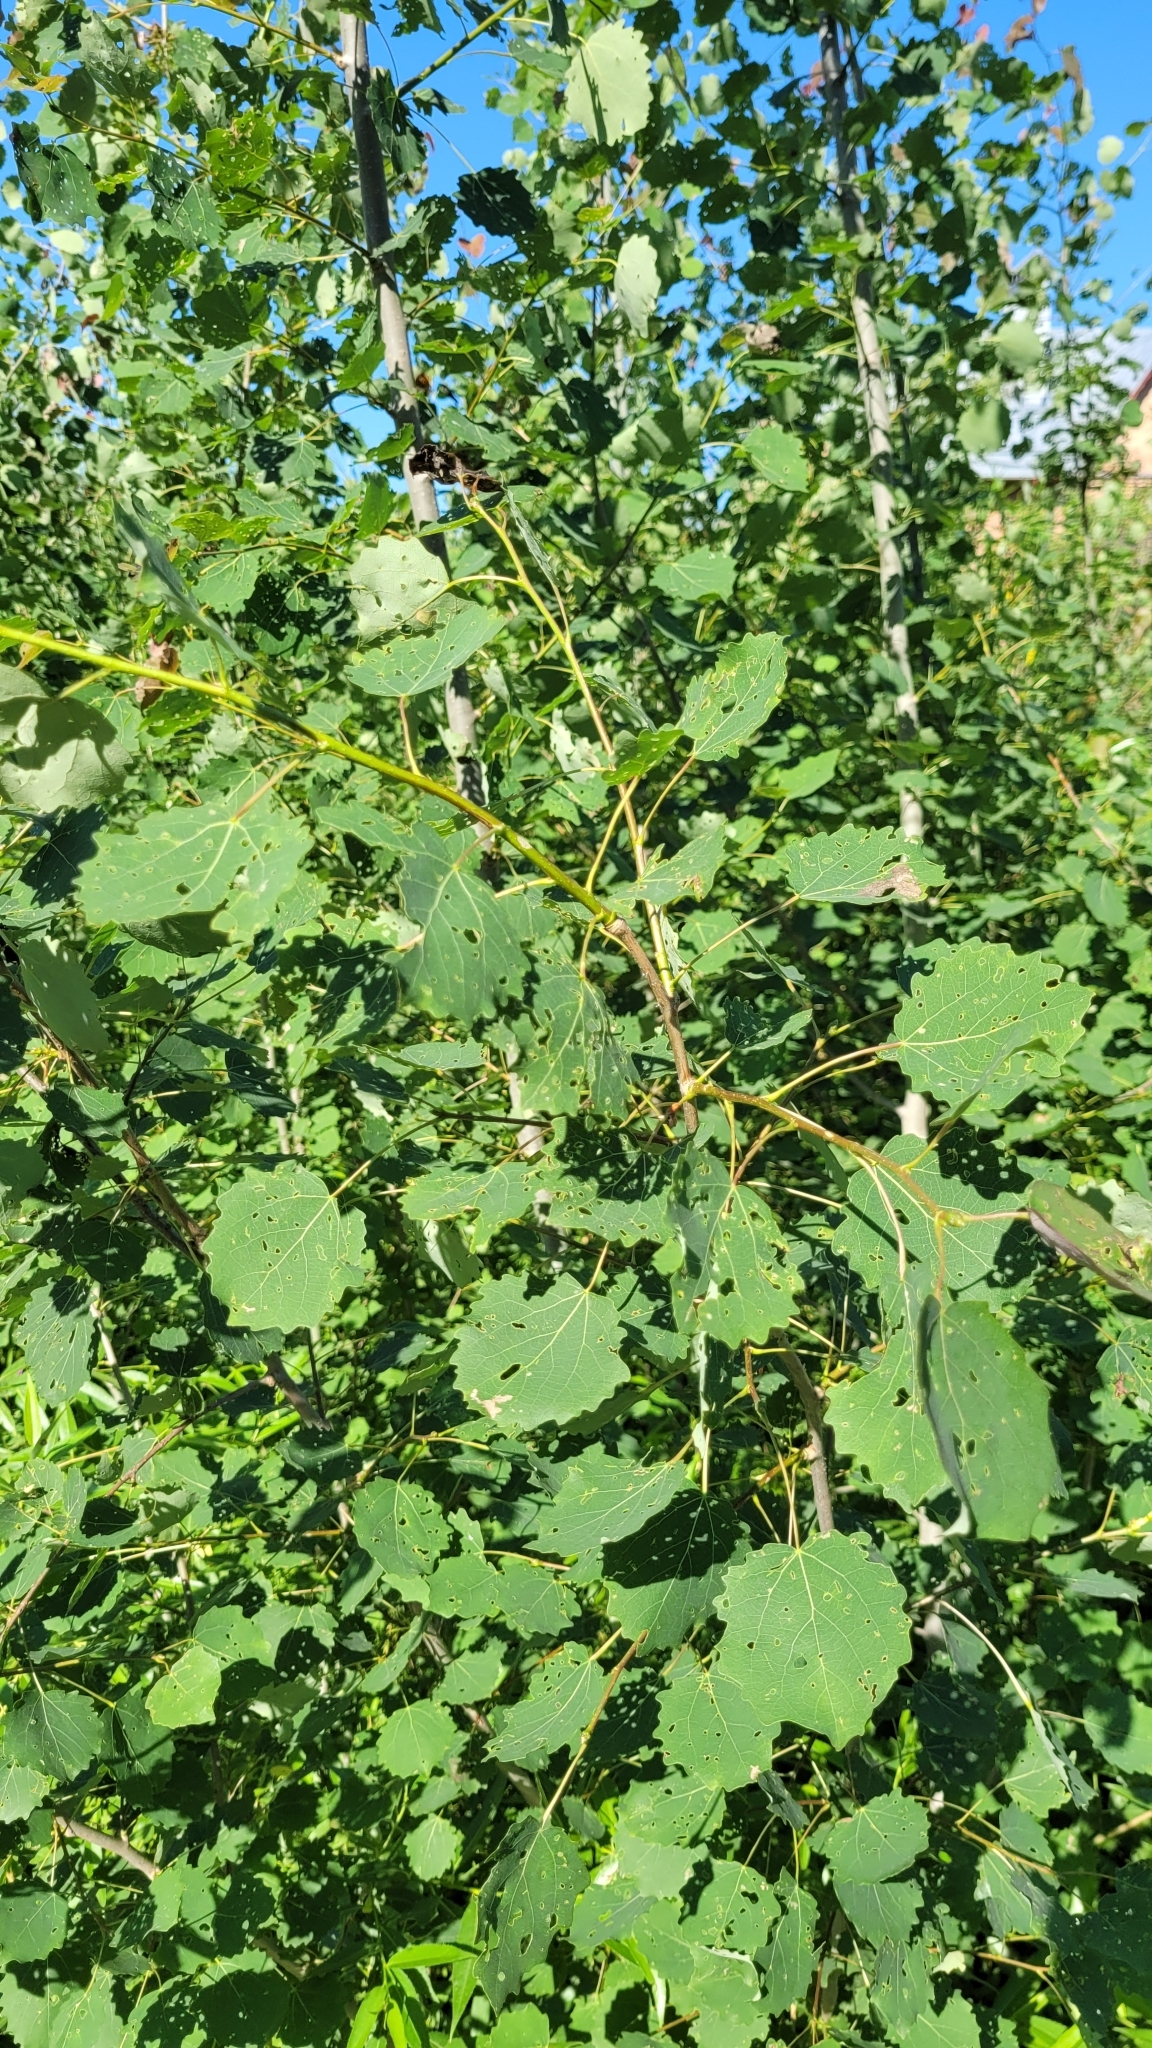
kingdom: Plantae
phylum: Tracheophyta
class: Magnoliopsida
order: Malpighiales
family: Salicaceae
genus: Populus
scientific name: Populus tremula
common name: European aspen
